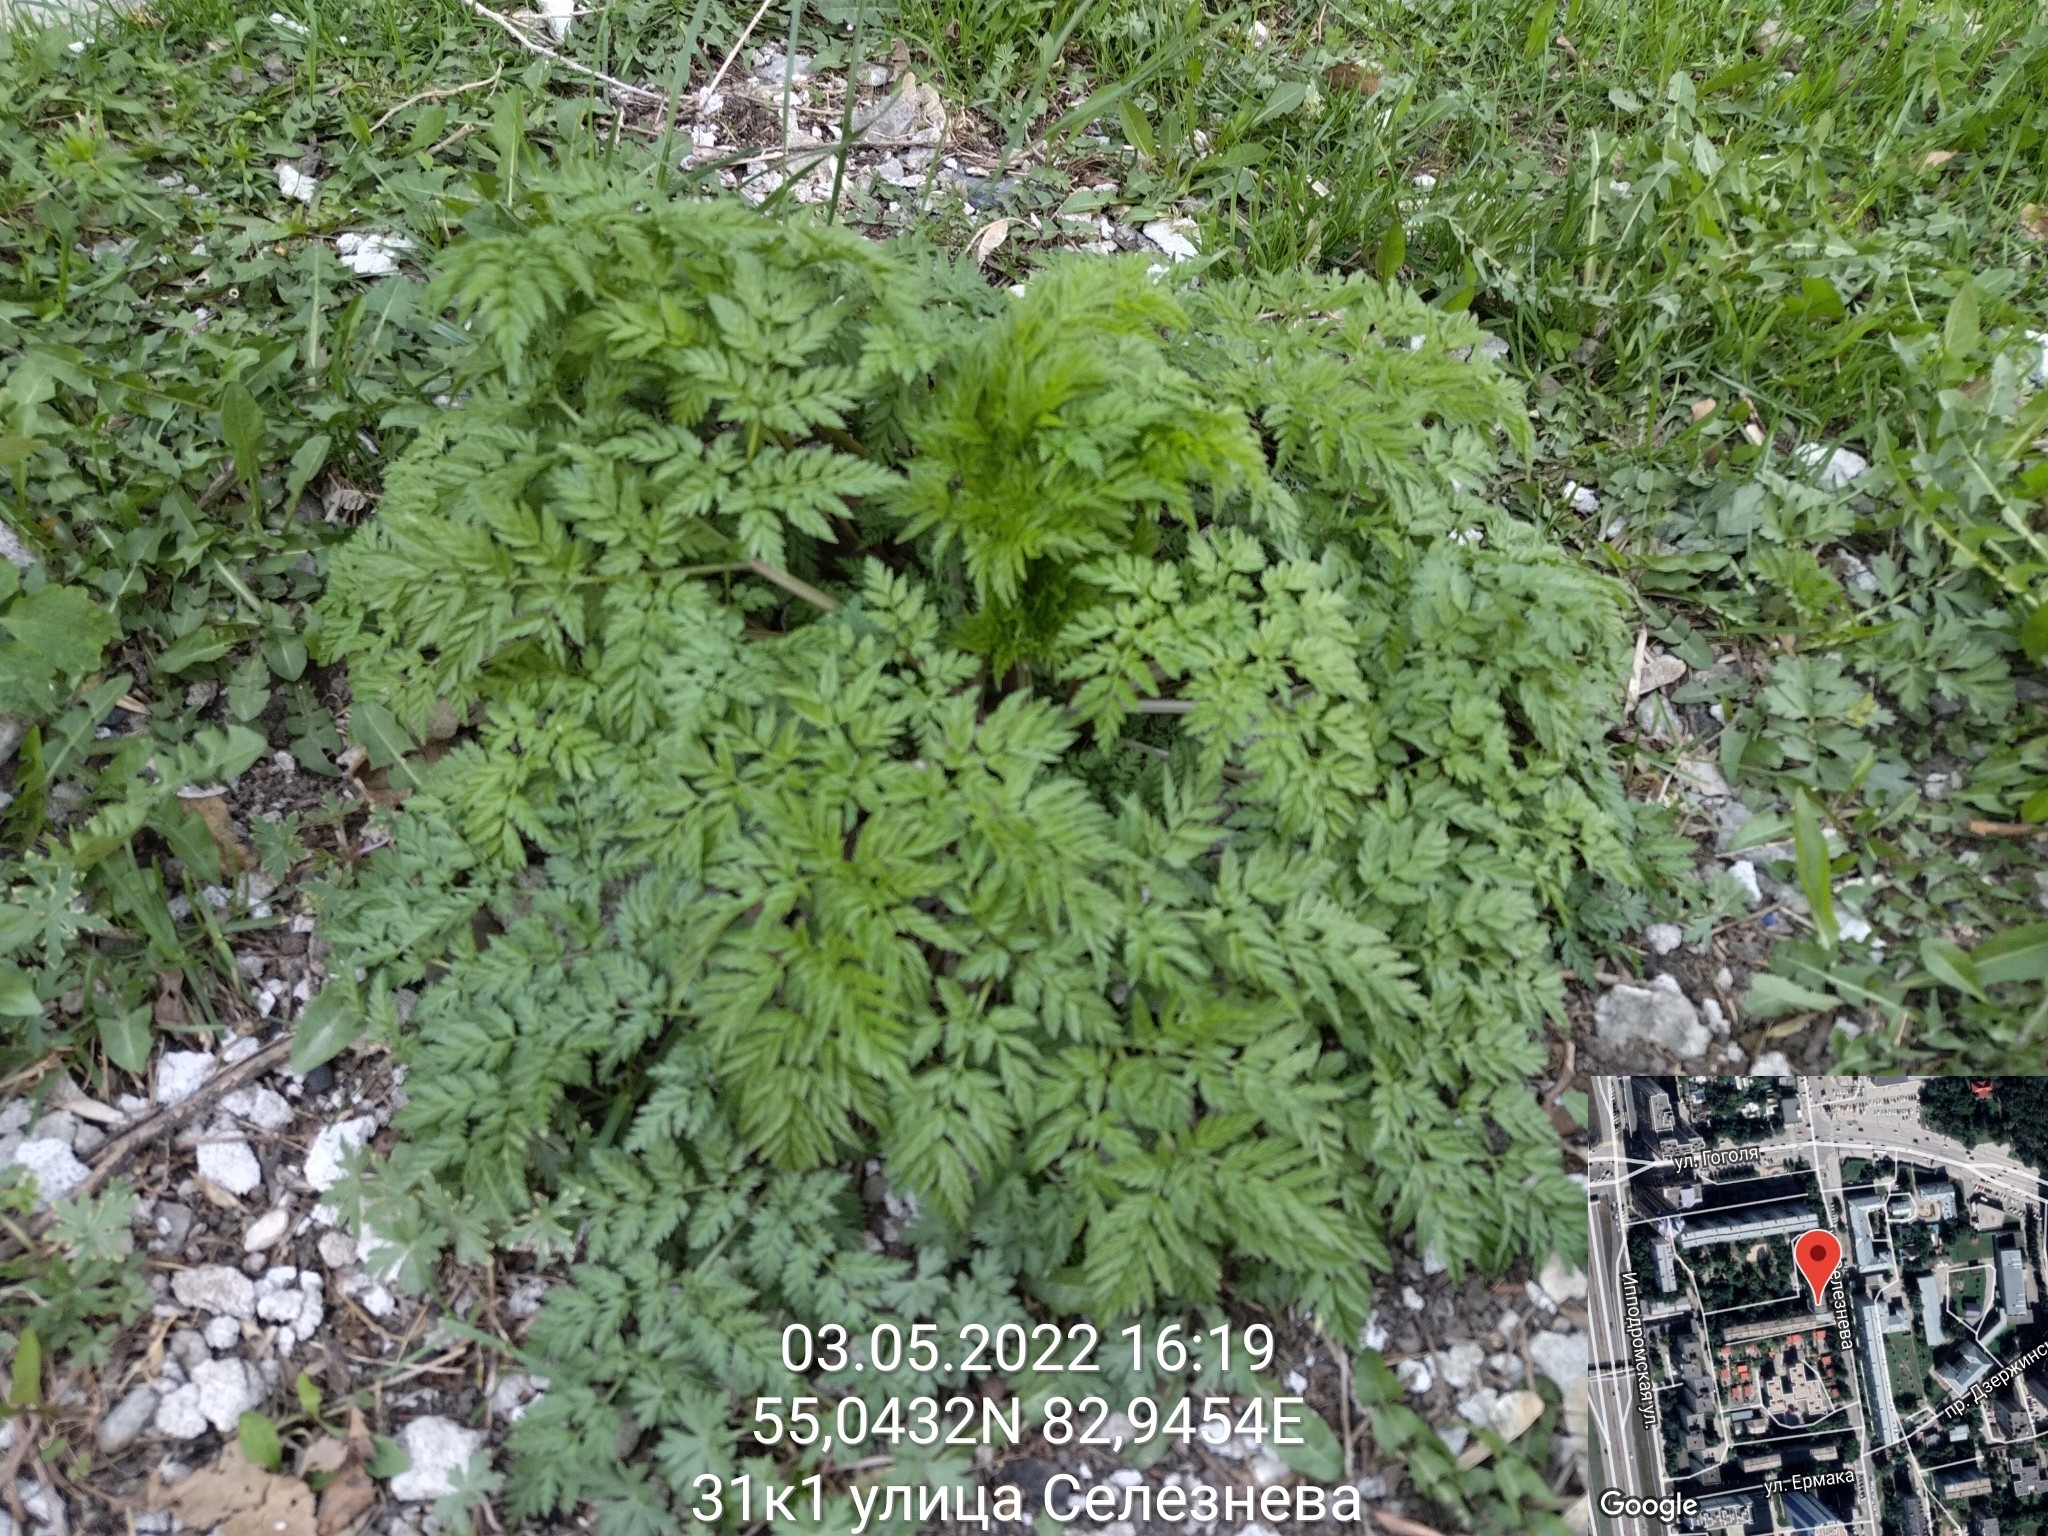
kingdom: Plantae
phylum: Tracheophyta
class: Magnoliopsida
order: Apiales
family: Apiaceae
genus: Anthriscus
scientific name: Anthriscus sylvestris
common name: Cow parsley
